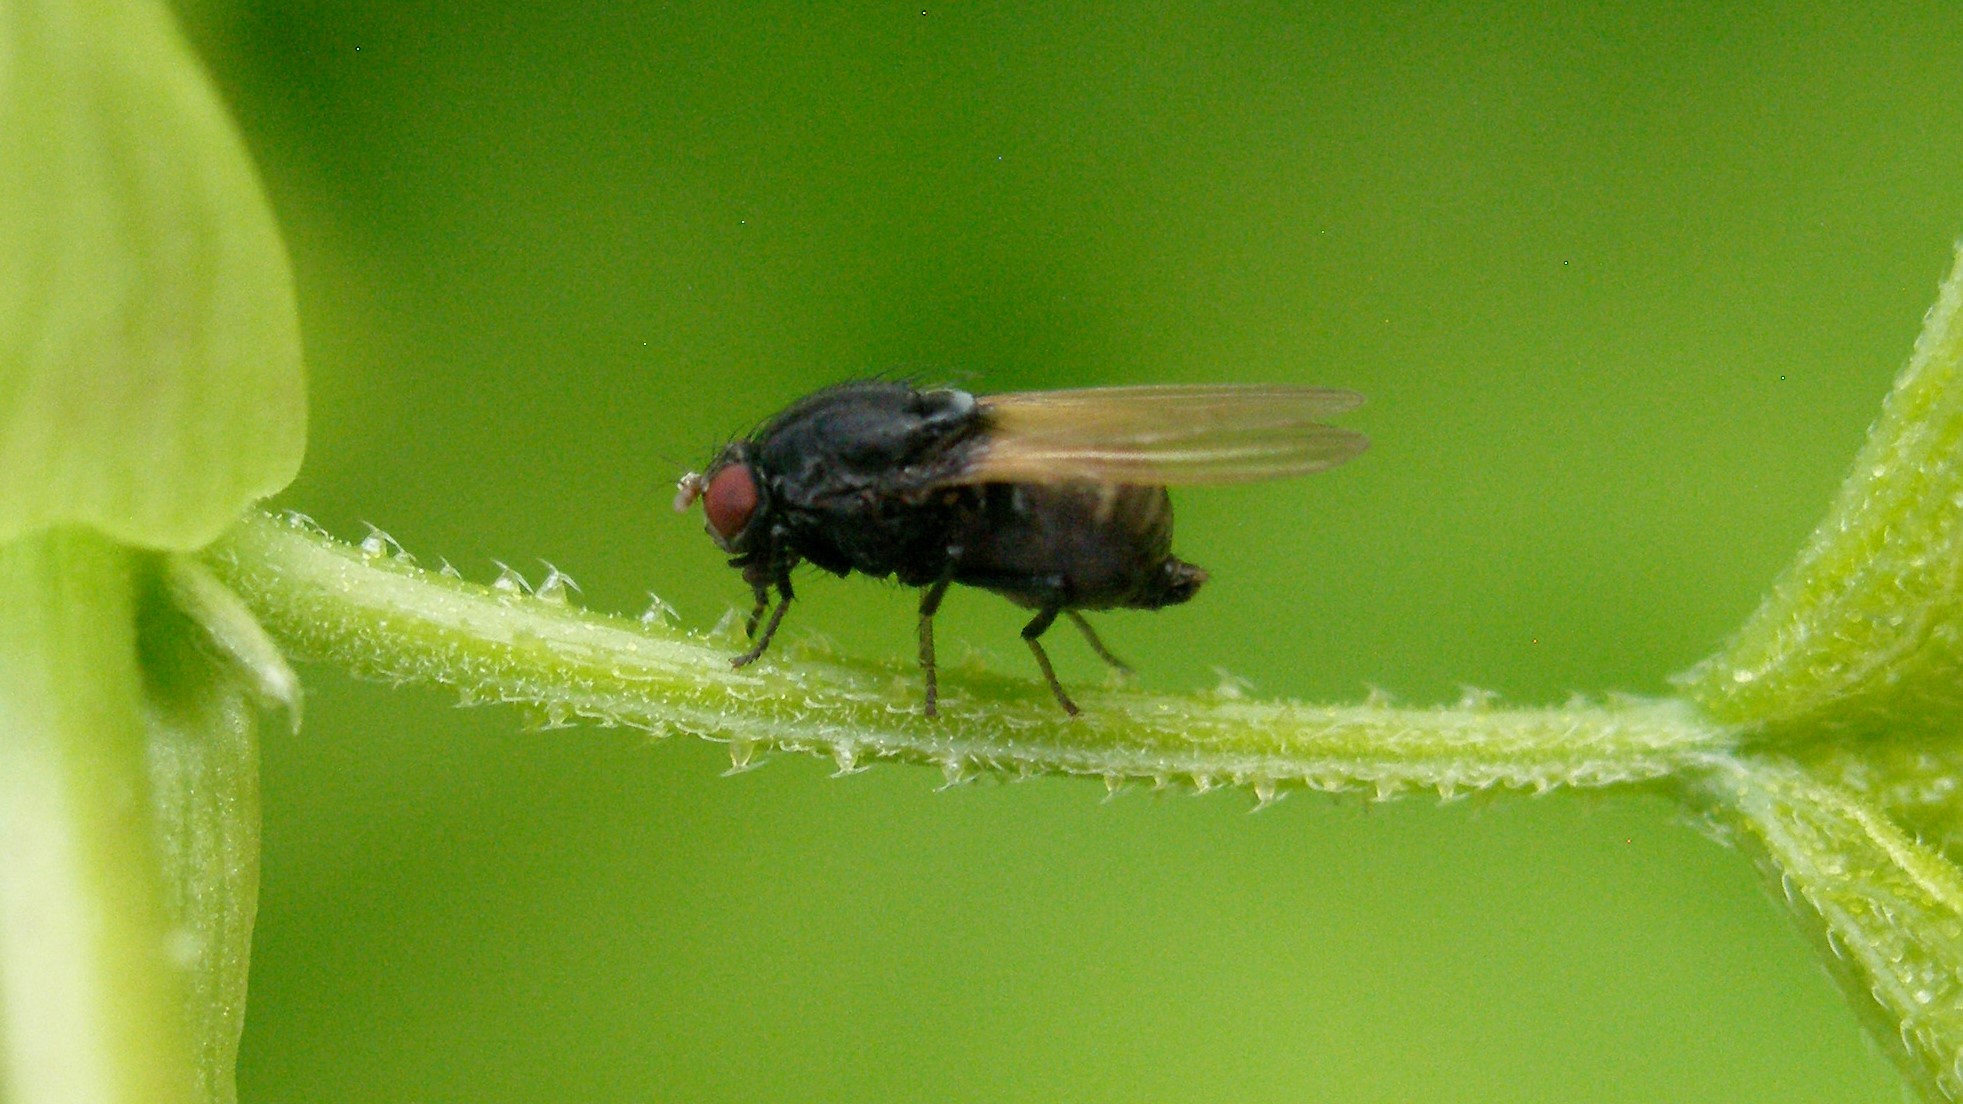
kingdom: Animalia
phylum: Arthropoda
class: Insecta
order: Diptera
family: Lauxaniidae
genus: Minettia
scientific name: Minettia longipennis
